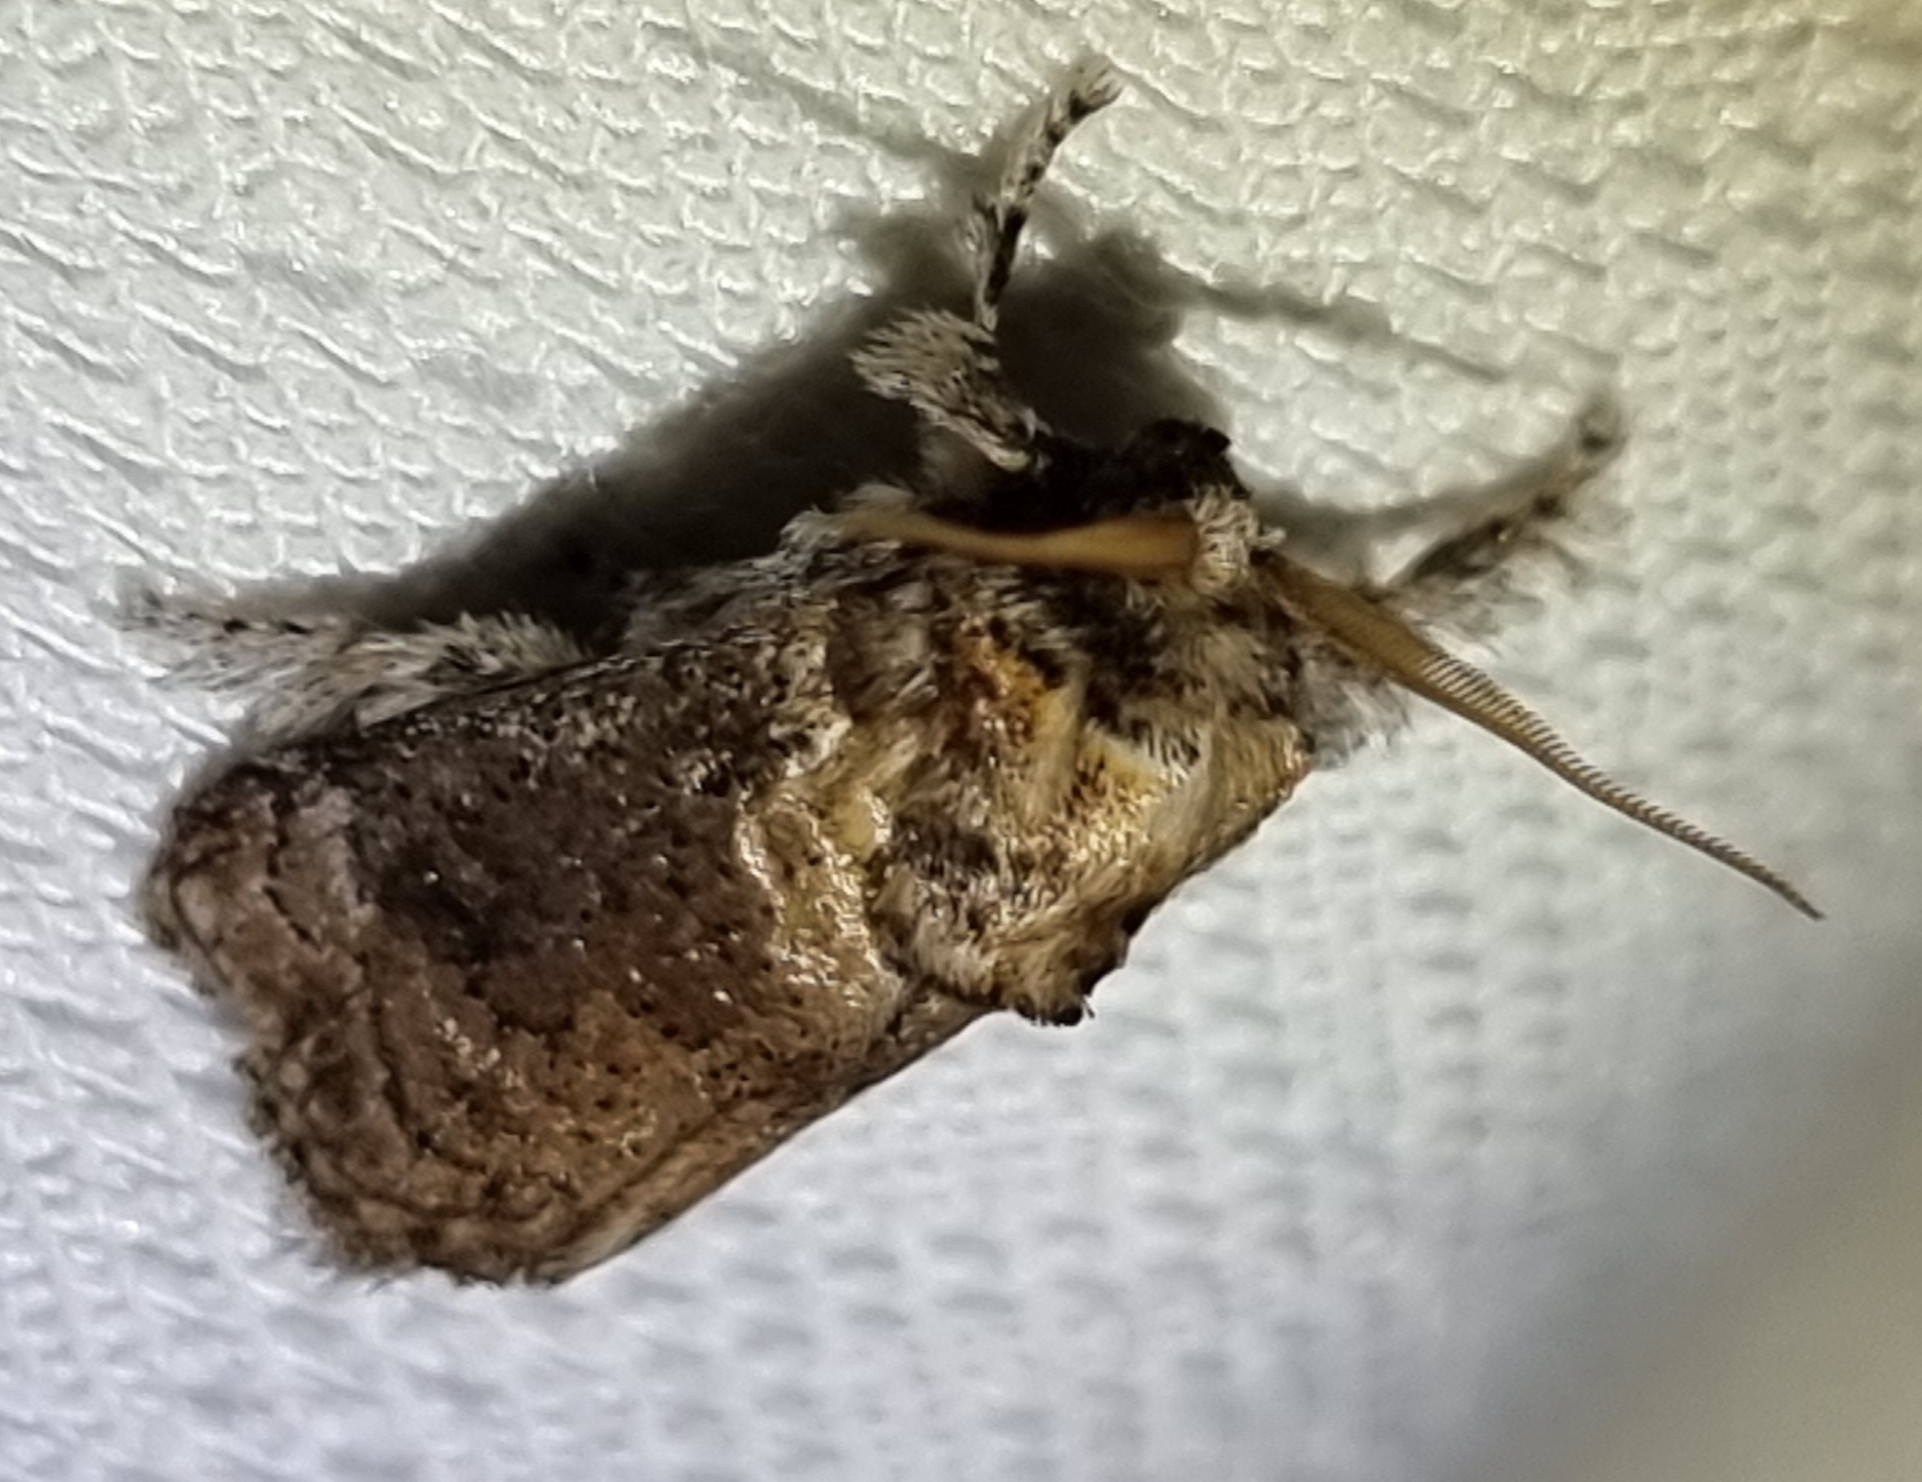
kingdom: Animalia
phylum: Arthropoda
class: Insecta
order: Lepidoptera
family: Limacodidae
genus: Mecytha
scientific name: Mecytha fasciata
